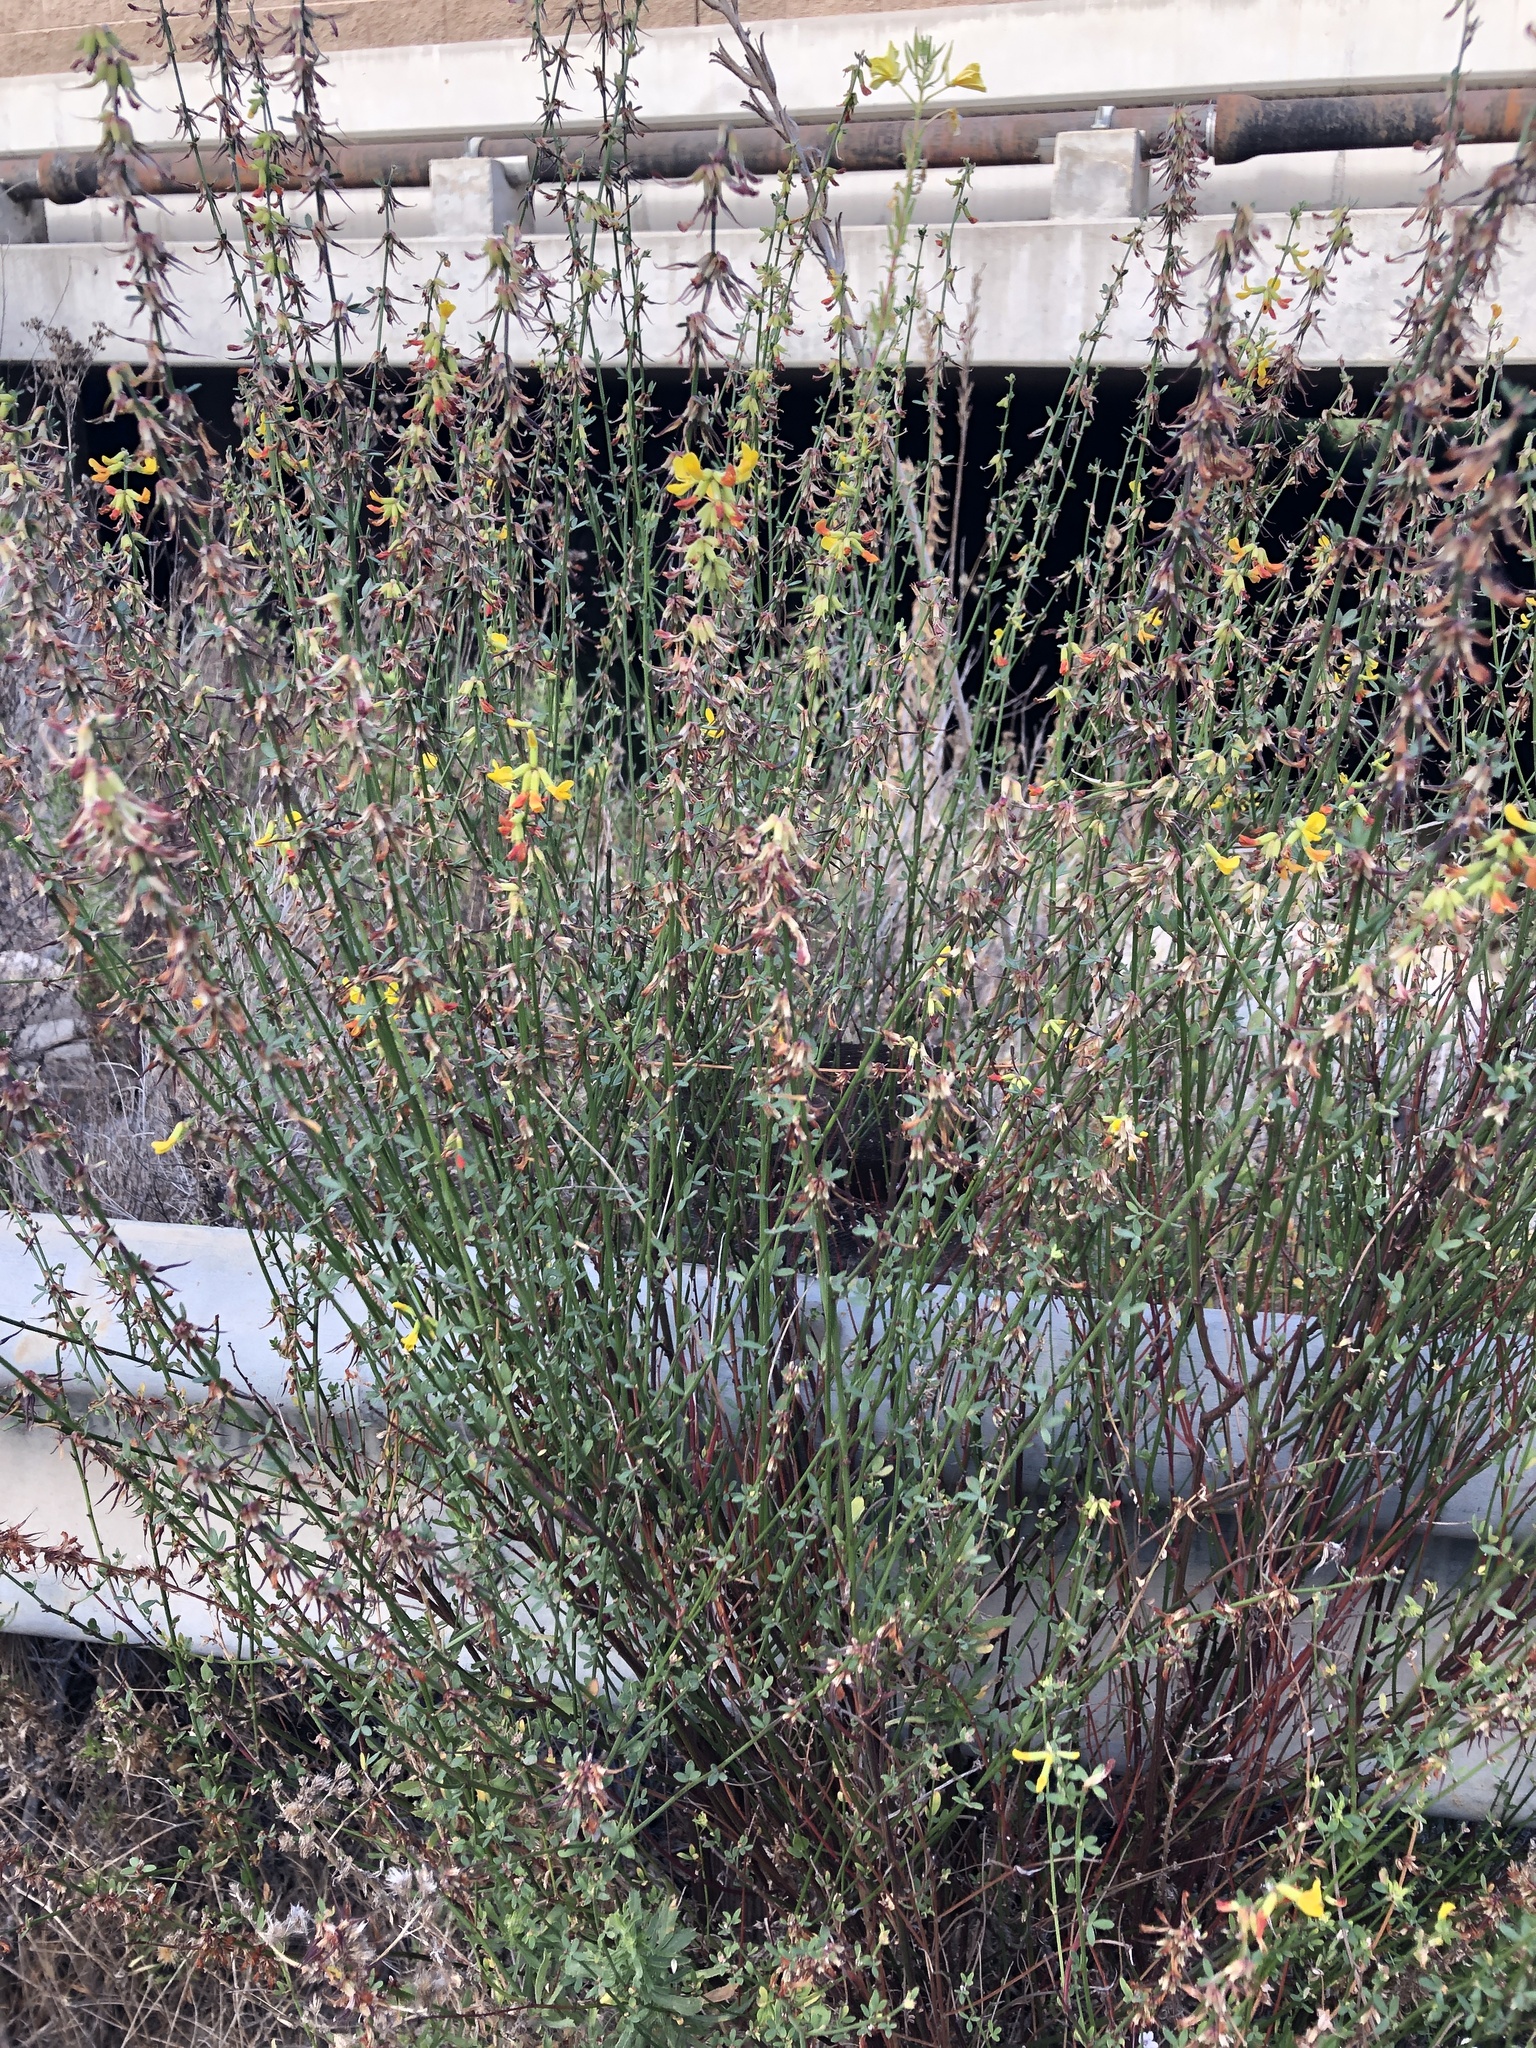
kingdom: Plantae
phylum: Tracheophyta
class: Magnoliopsida
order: Fabales
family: Fabaceae
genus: Acmispon
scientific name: Acmispon glaber
